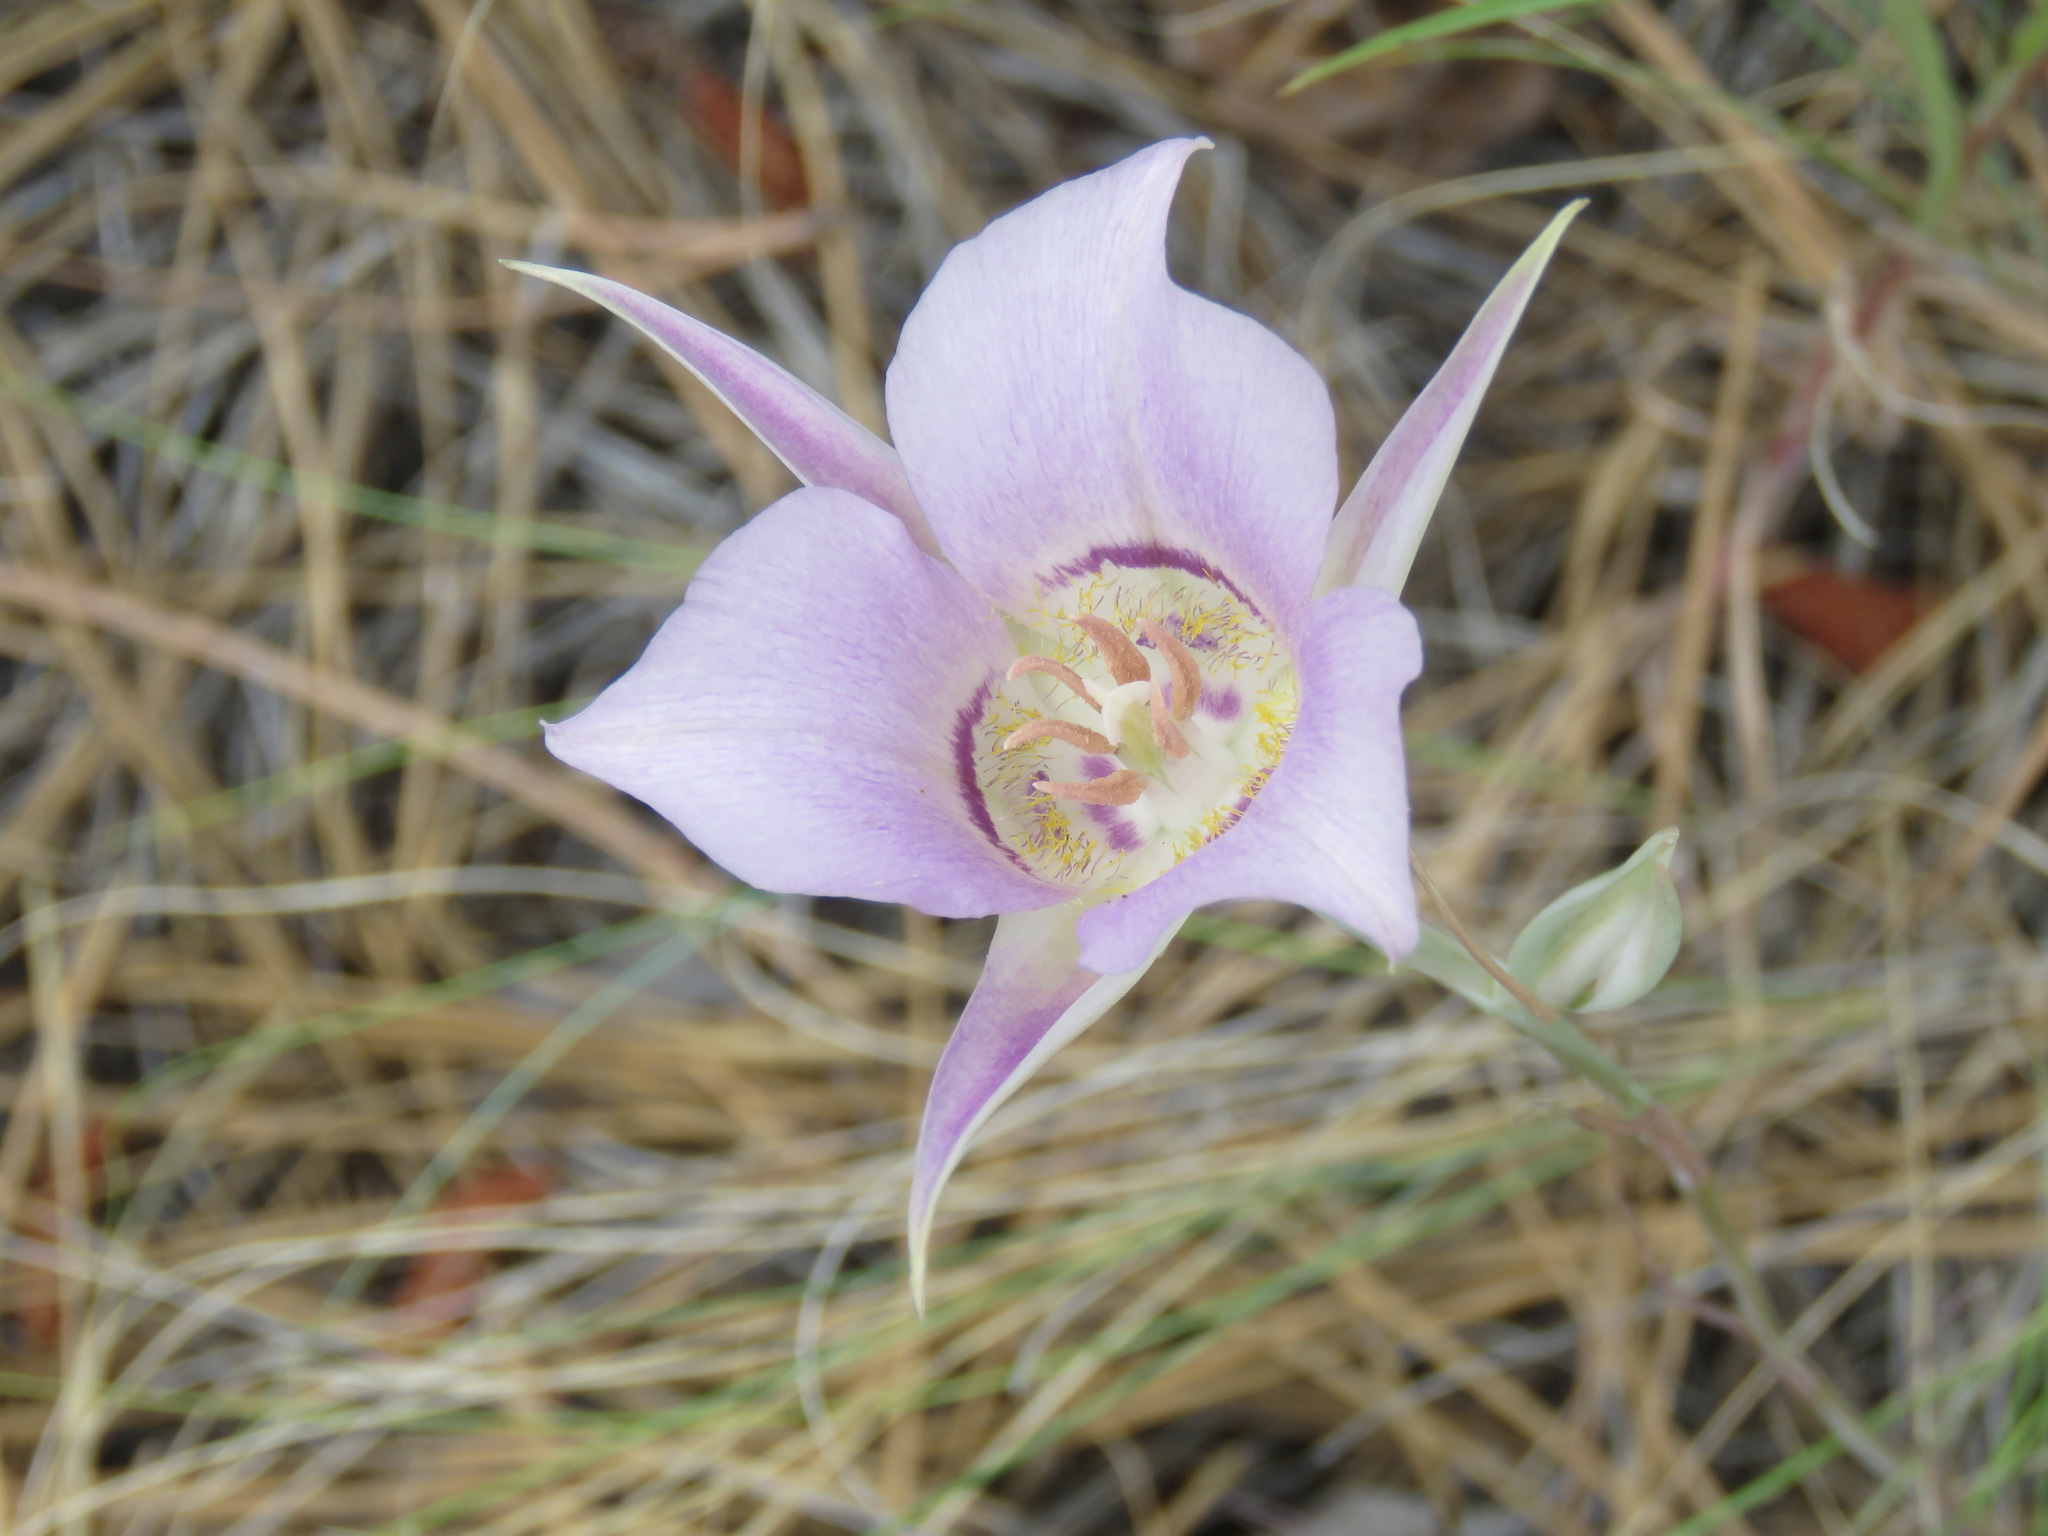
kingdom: Plantae
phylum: Tracheophyta
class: Liliopsida
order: Liliales
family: Liliaceae
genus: Calochortus
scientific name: Calochortus macrocarpus
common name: Green-band mariposa lily
